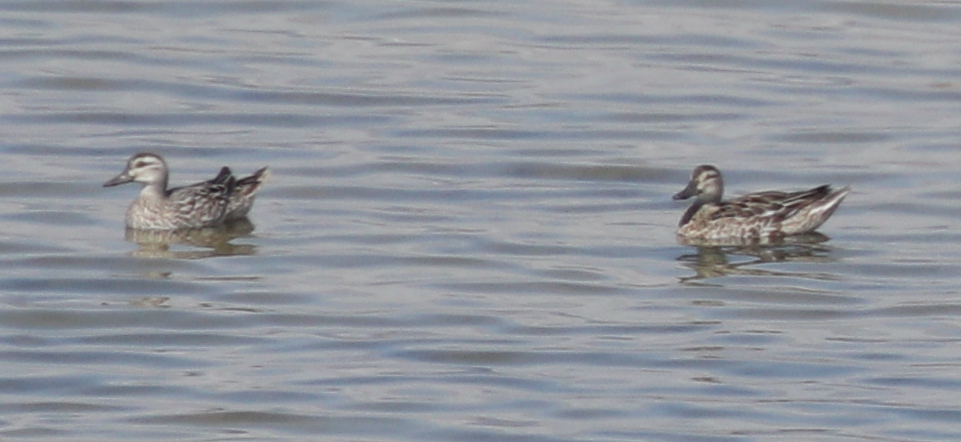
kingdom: Animalia
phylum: Chordata
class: Aves
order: Anseriformes
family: Anatidae
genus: Spatula
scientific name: Spatula querquedula
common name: Garganey
